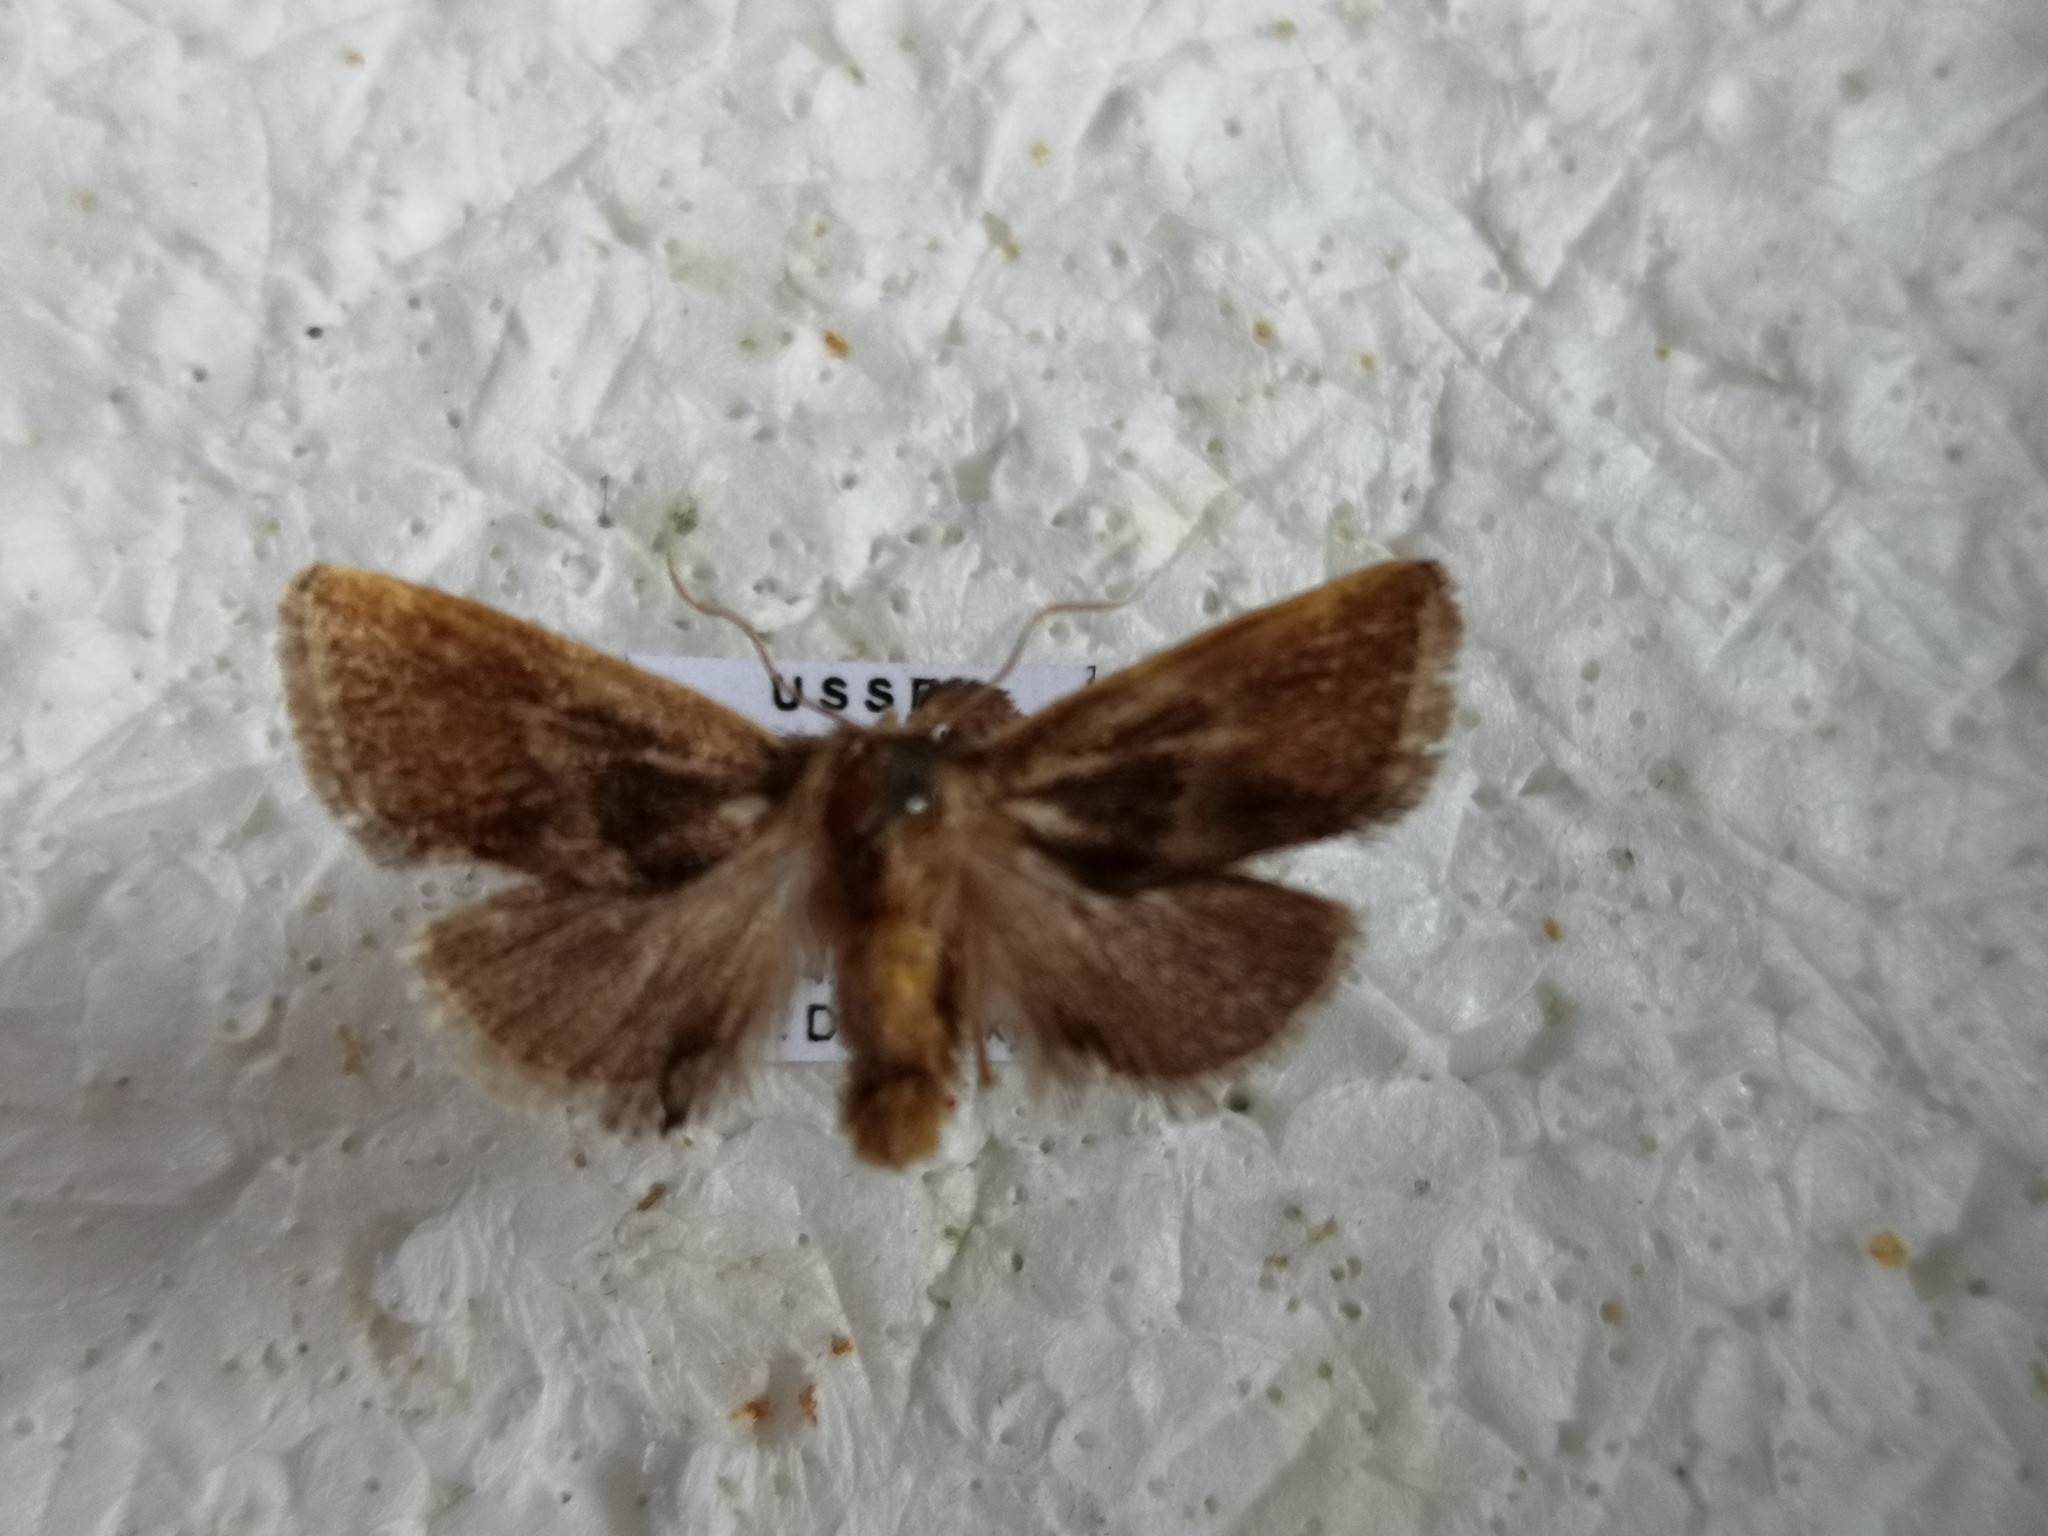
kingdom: Animalia
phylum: Arthropoda
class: Insecta
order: Lepidoptera
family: Limacodidae
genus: Phrixolepia
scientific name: Phrixolepia sericea
